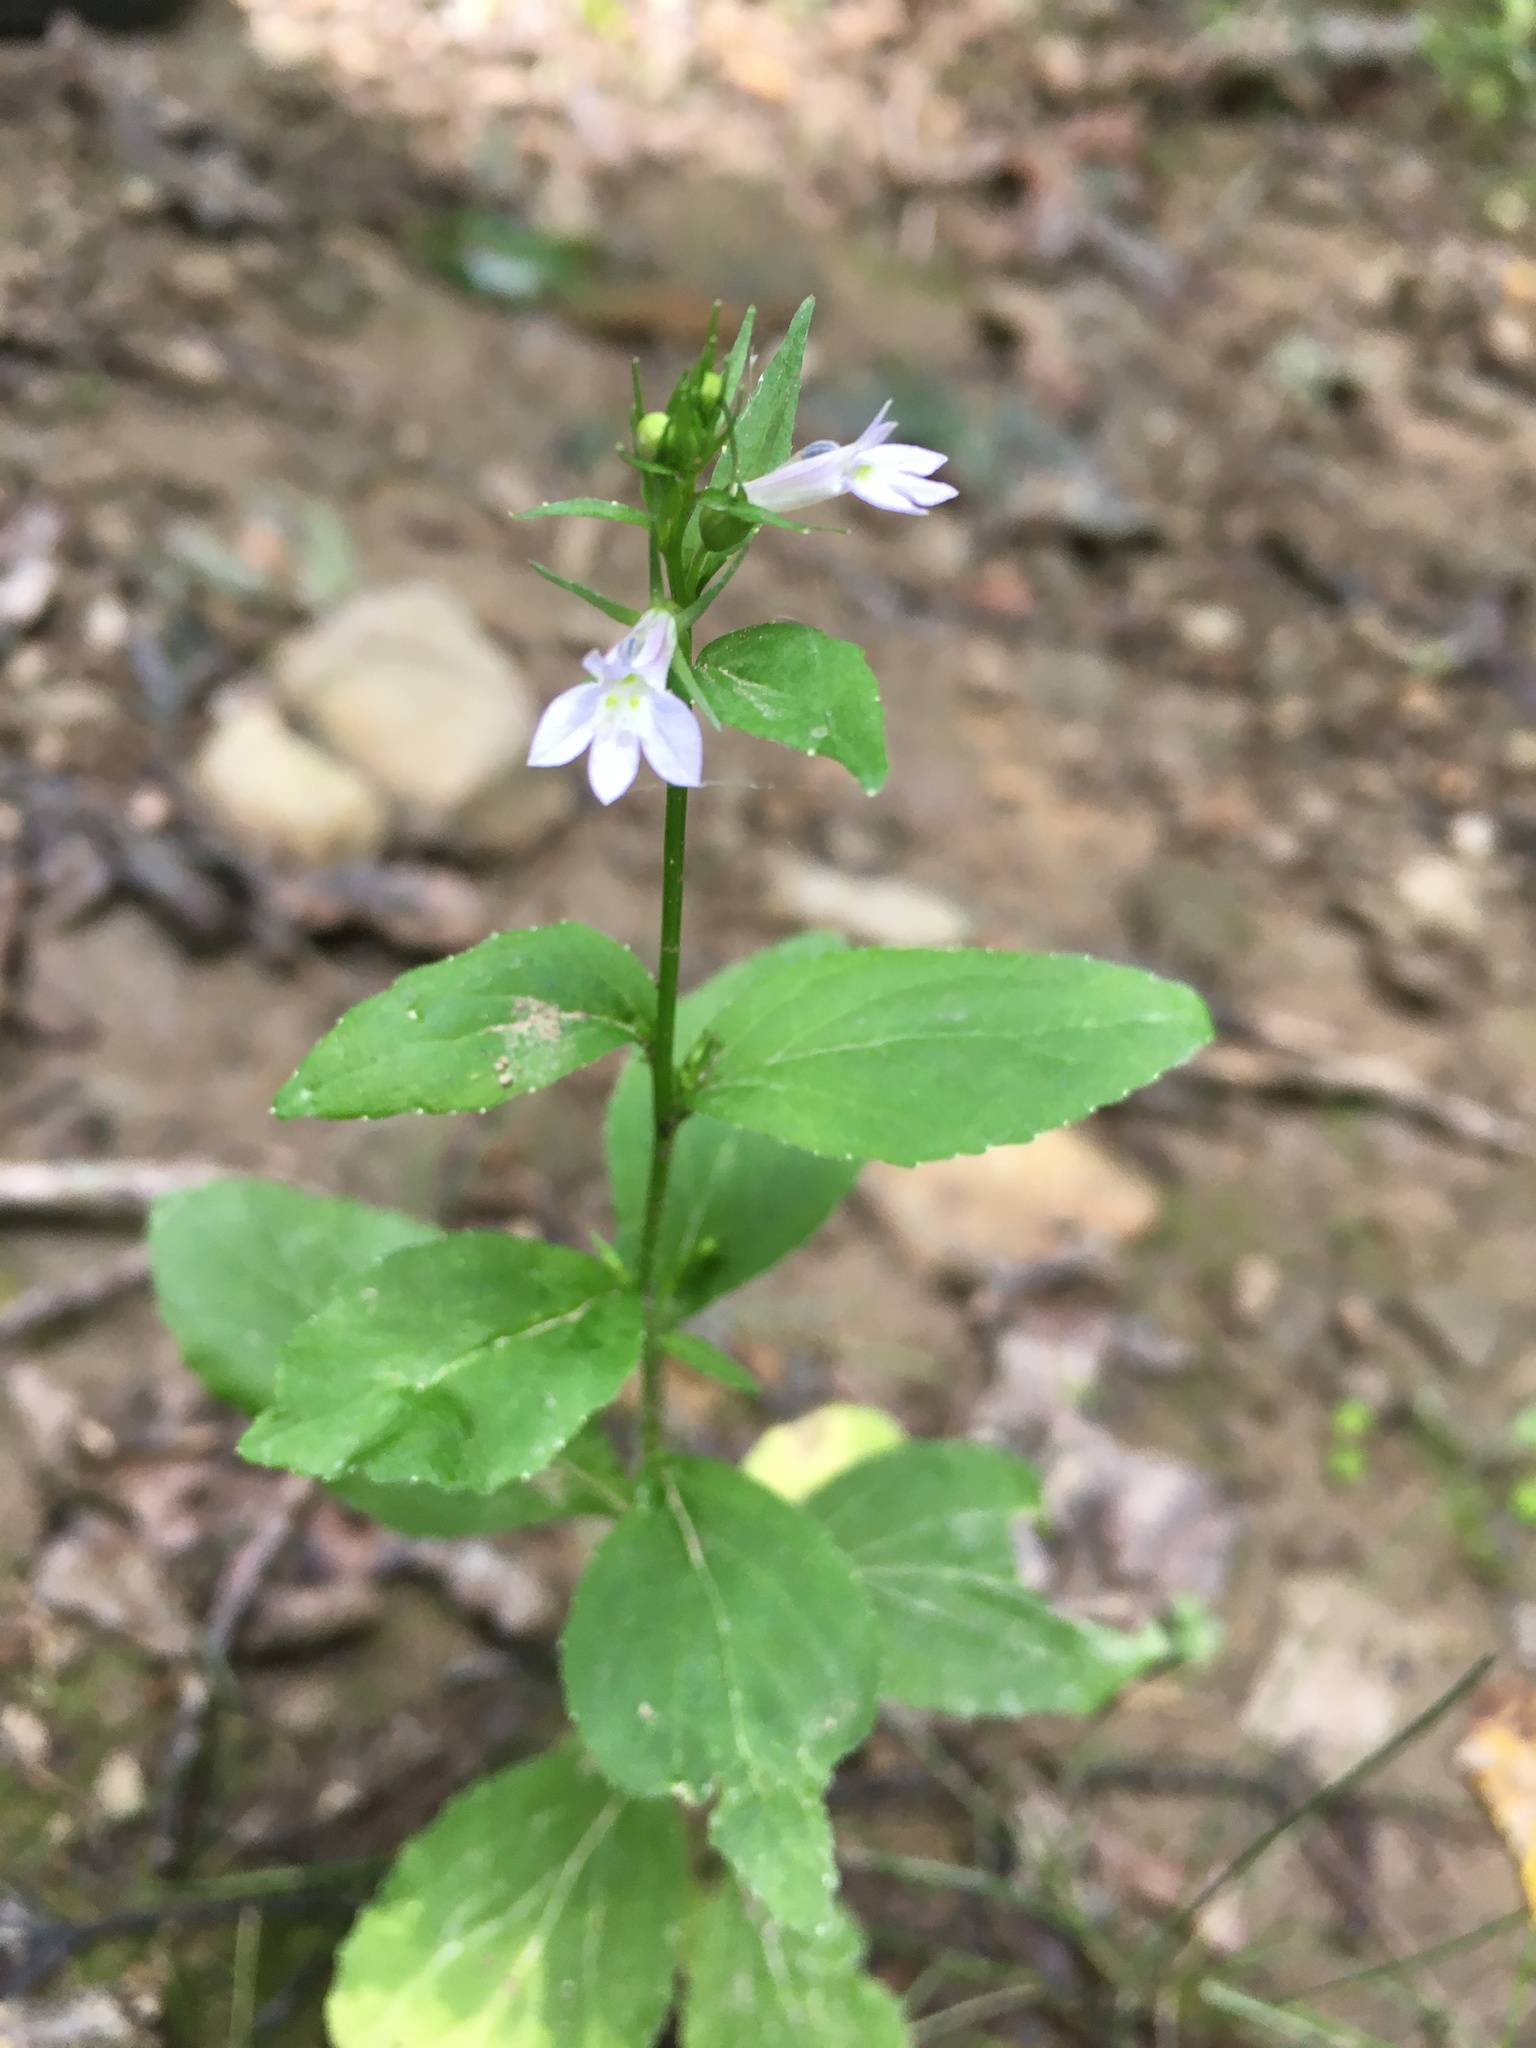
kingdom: Plantae
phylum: Tracheophyta
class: Magnoliopsida
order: Asterales
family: Campanulaceae
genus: Lobelia
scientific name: Lobelia inflata
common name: Indian tobacco
